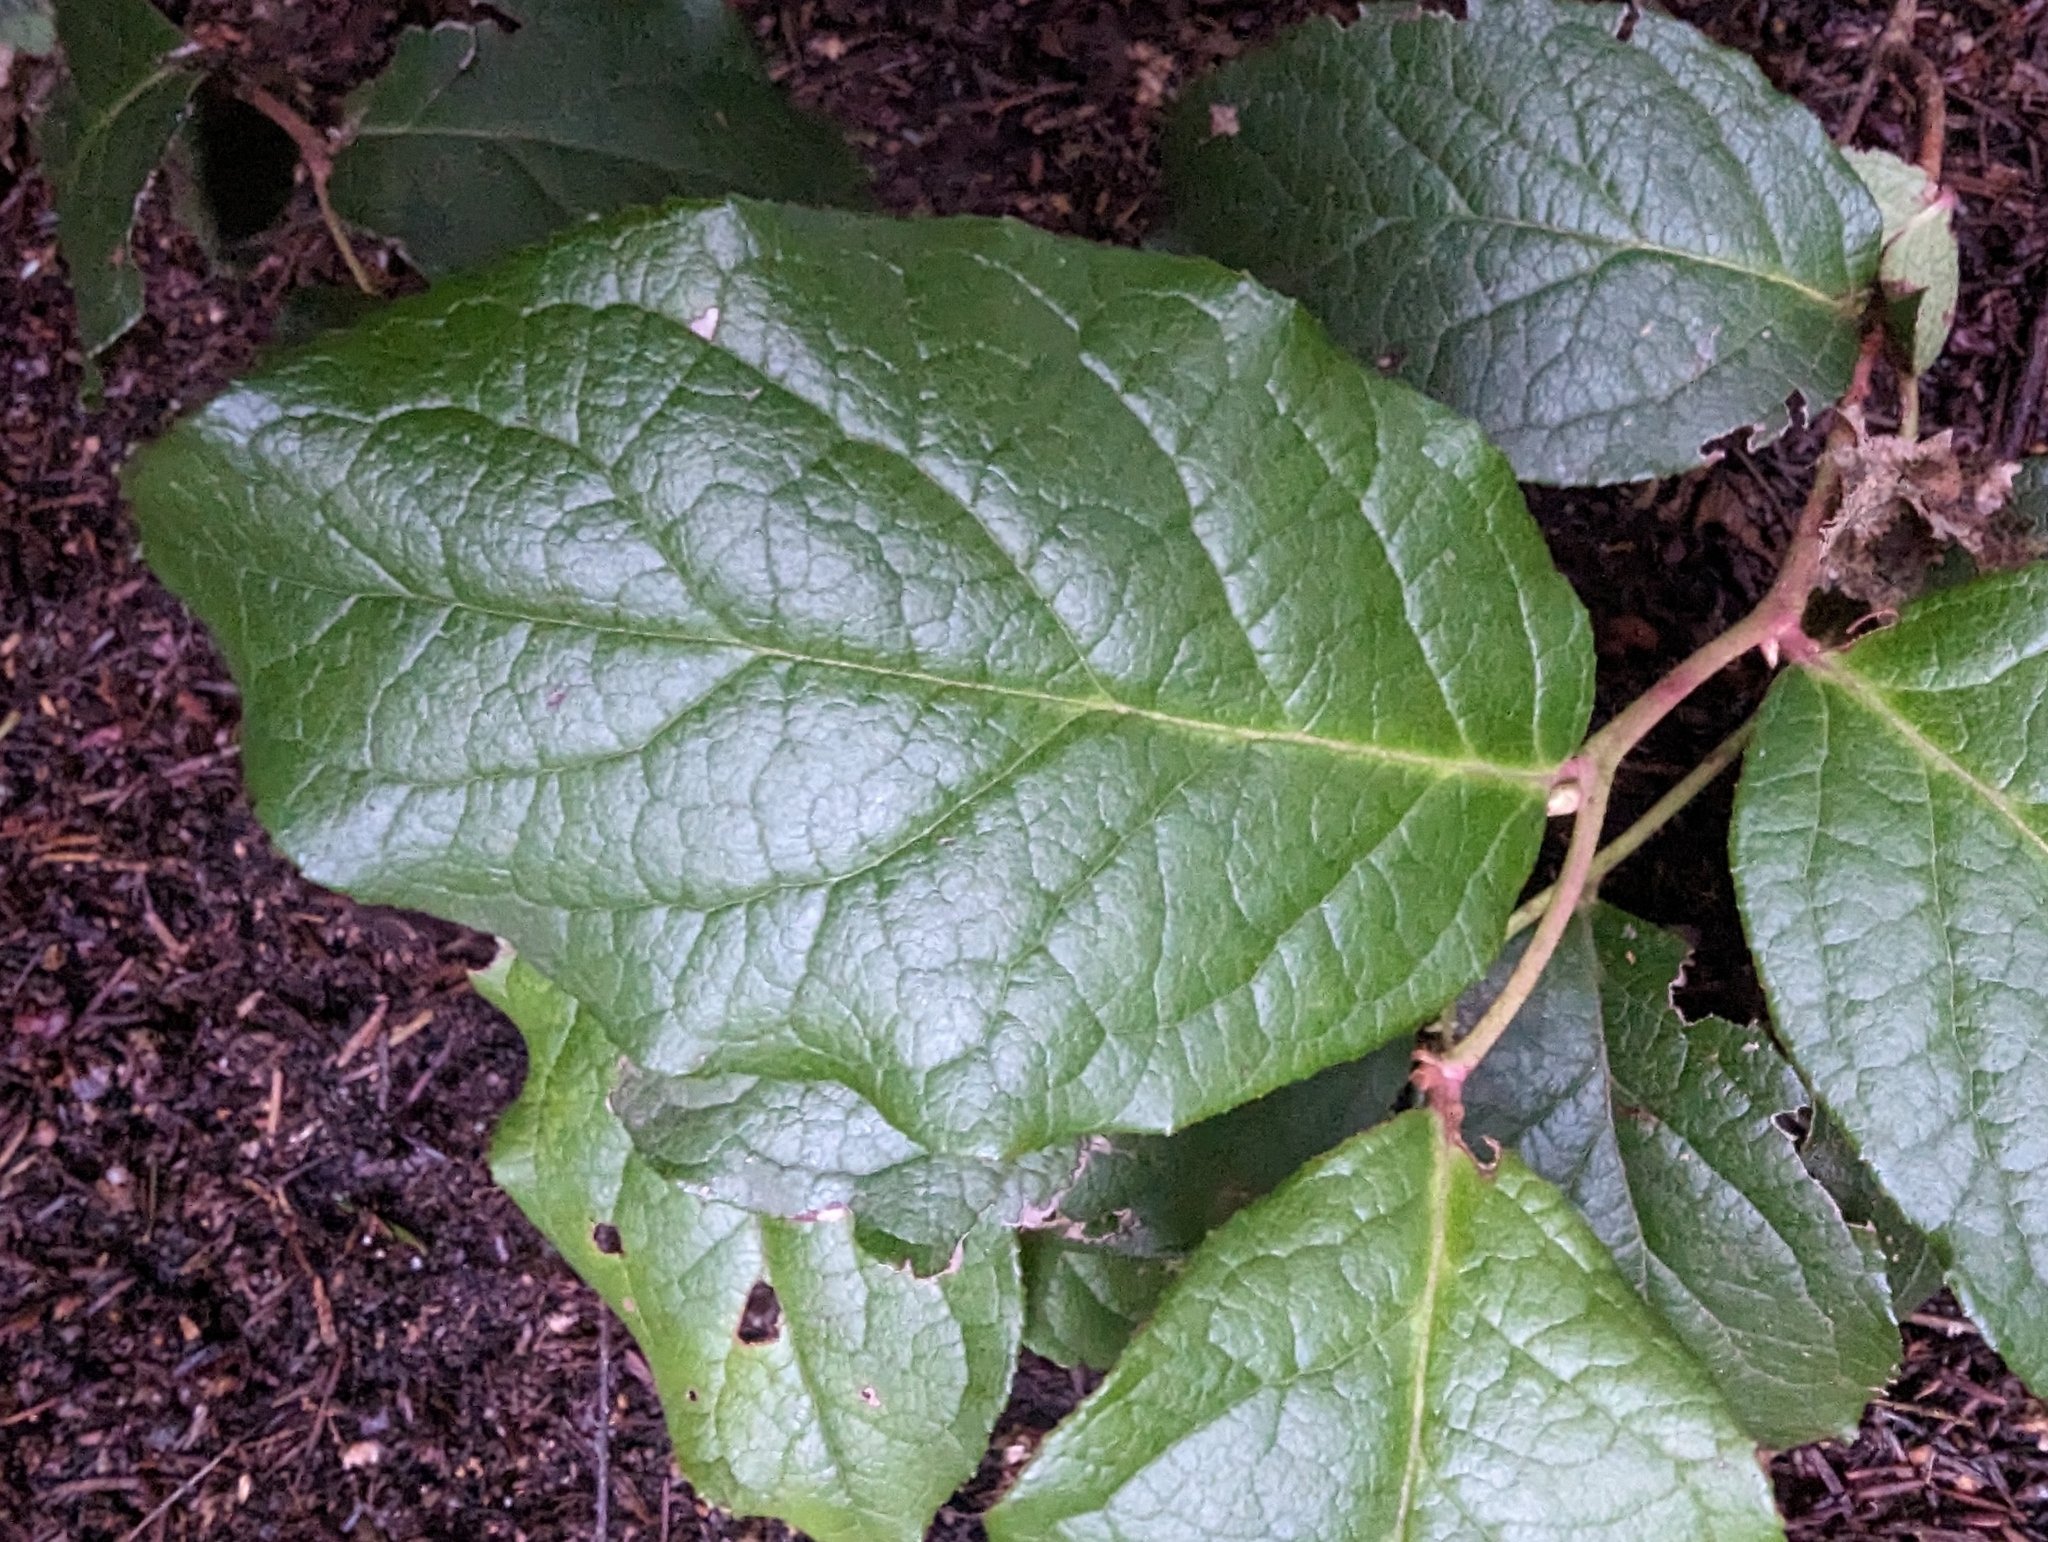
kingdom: Plantae
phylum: Tracheophyta
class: Magnoliopsida
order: Ericales
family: Ericaceae
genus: Gaultheria
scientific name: Gaultheria shallon
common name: Shallon
